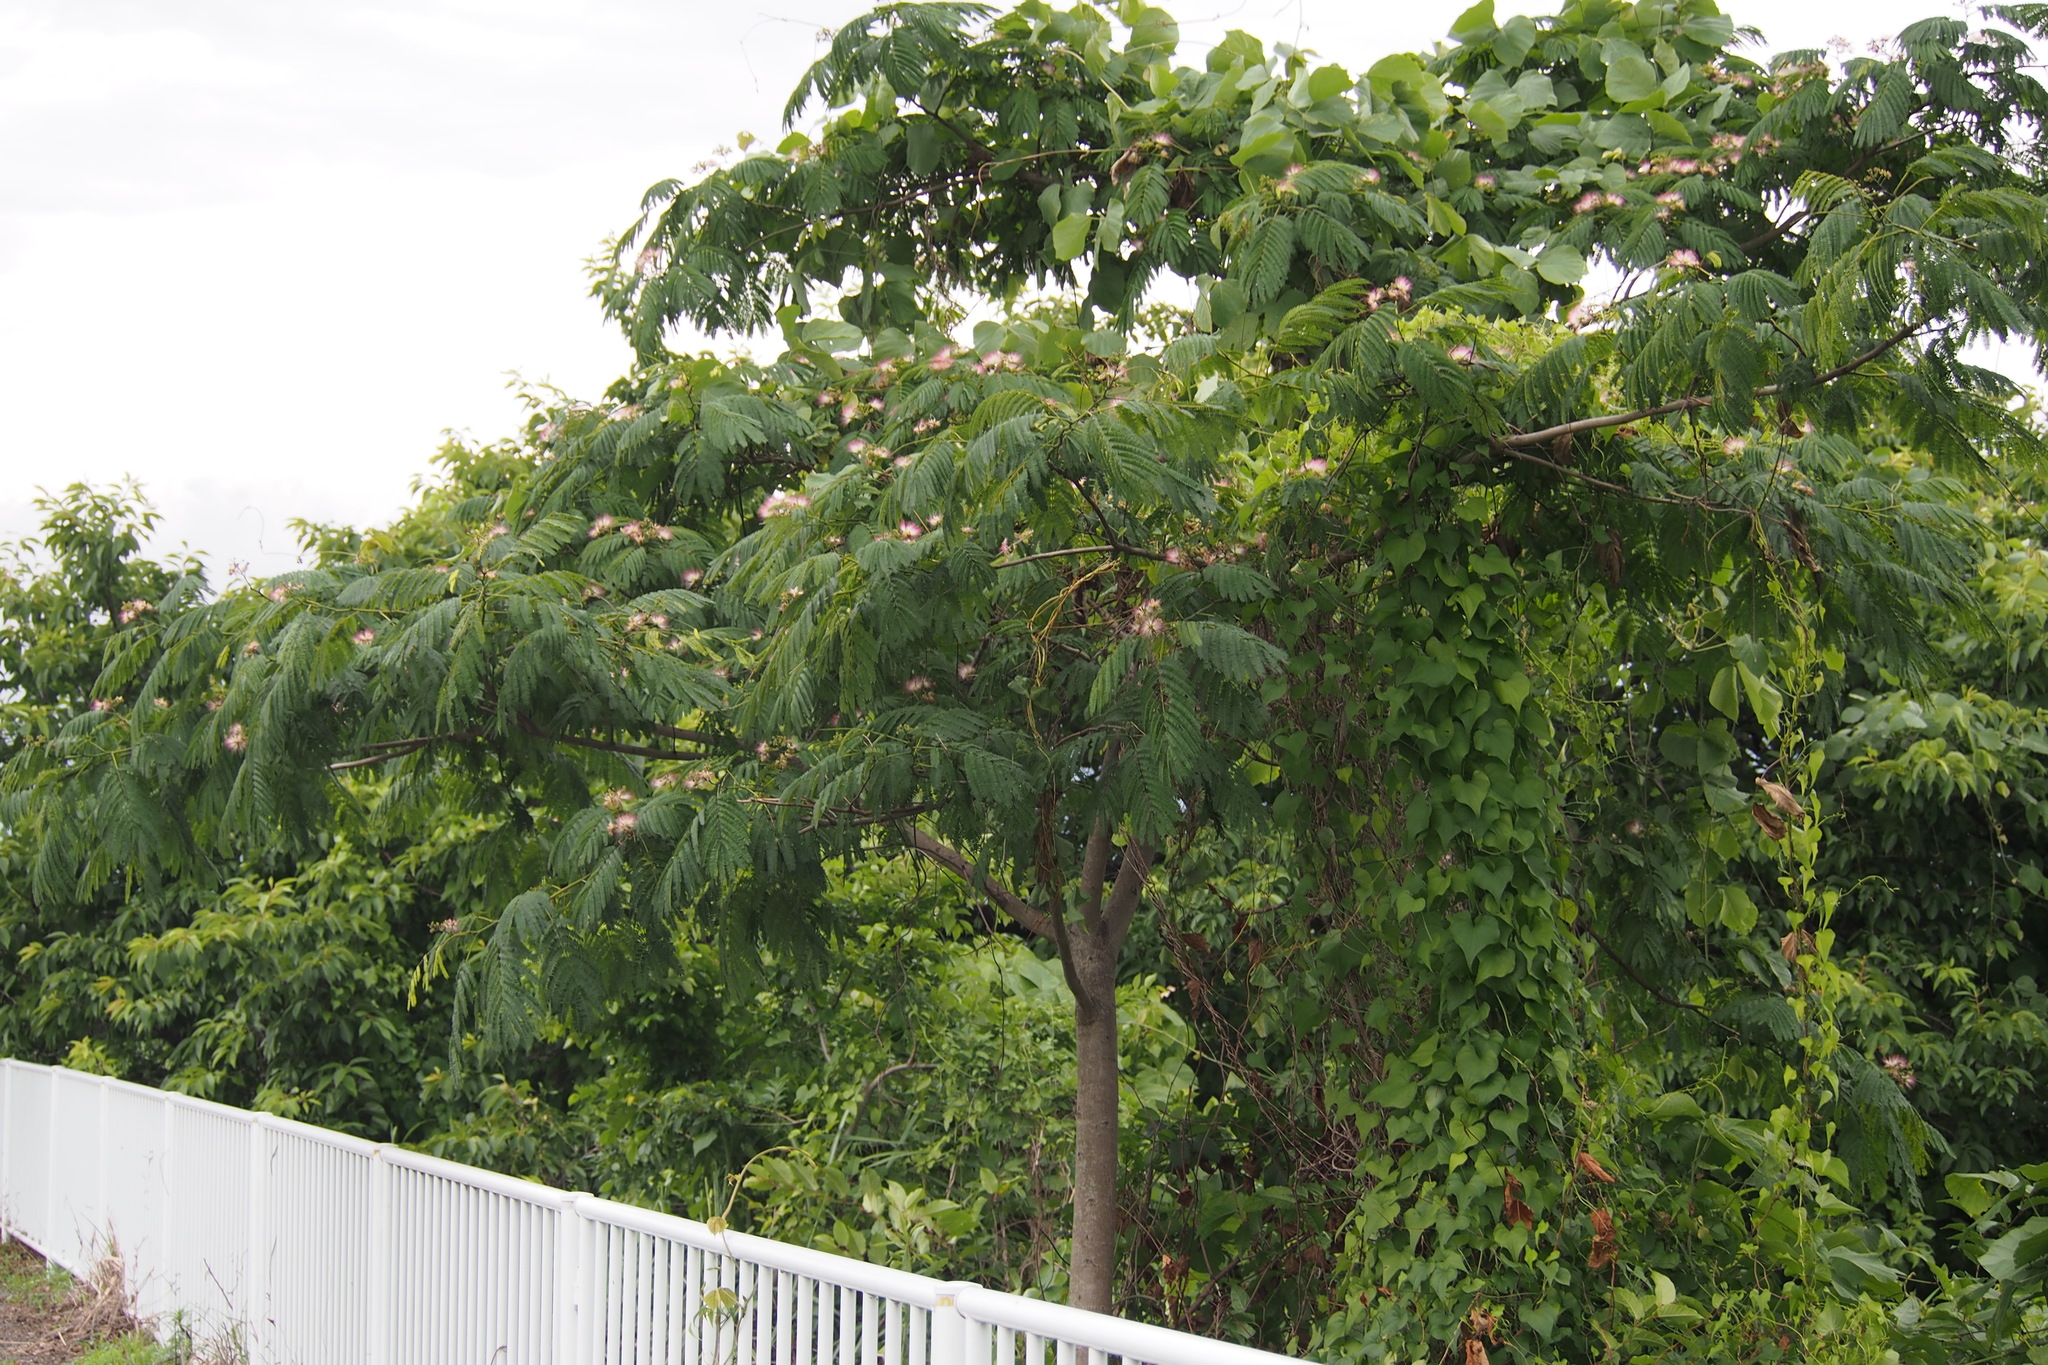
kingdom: Plantae
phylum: Tracheophyta
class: Magnoliopsida
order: Fabales
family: Fabaceae
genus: Albizia
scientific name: Albizia julibrissin
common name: Silktree
